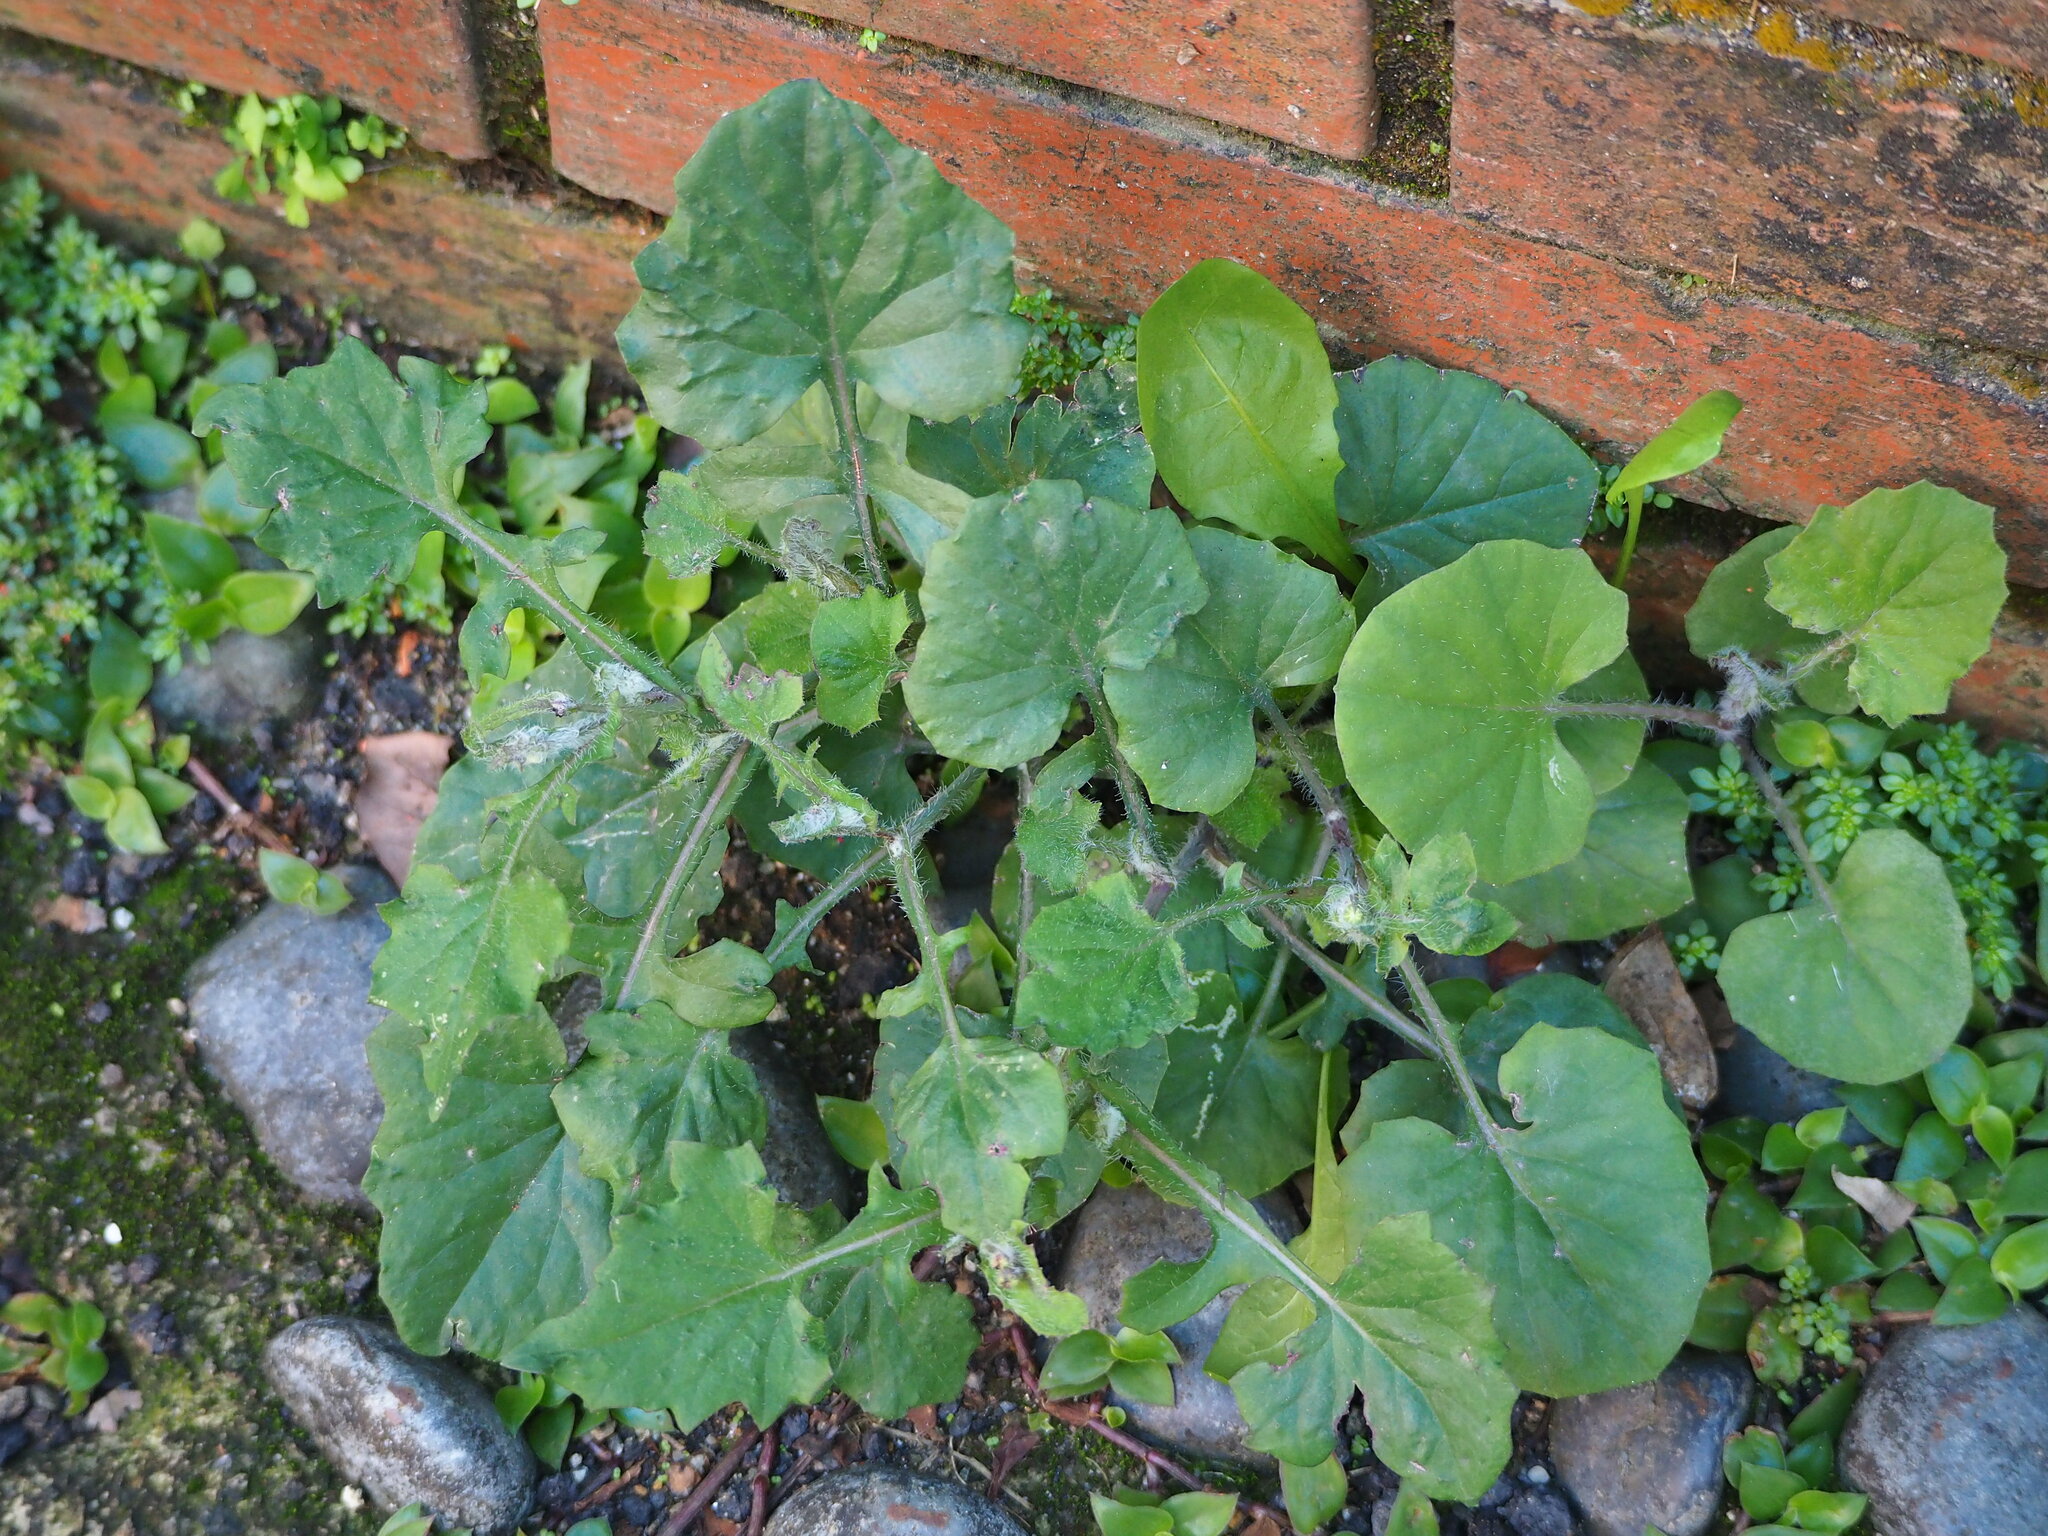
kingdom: Plantae
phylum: Tracheophyta
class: Magnoliopsida
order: Asterales
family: Asteraceae
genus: Emilia
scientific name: Emilia javanica
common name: Tassel-flower
